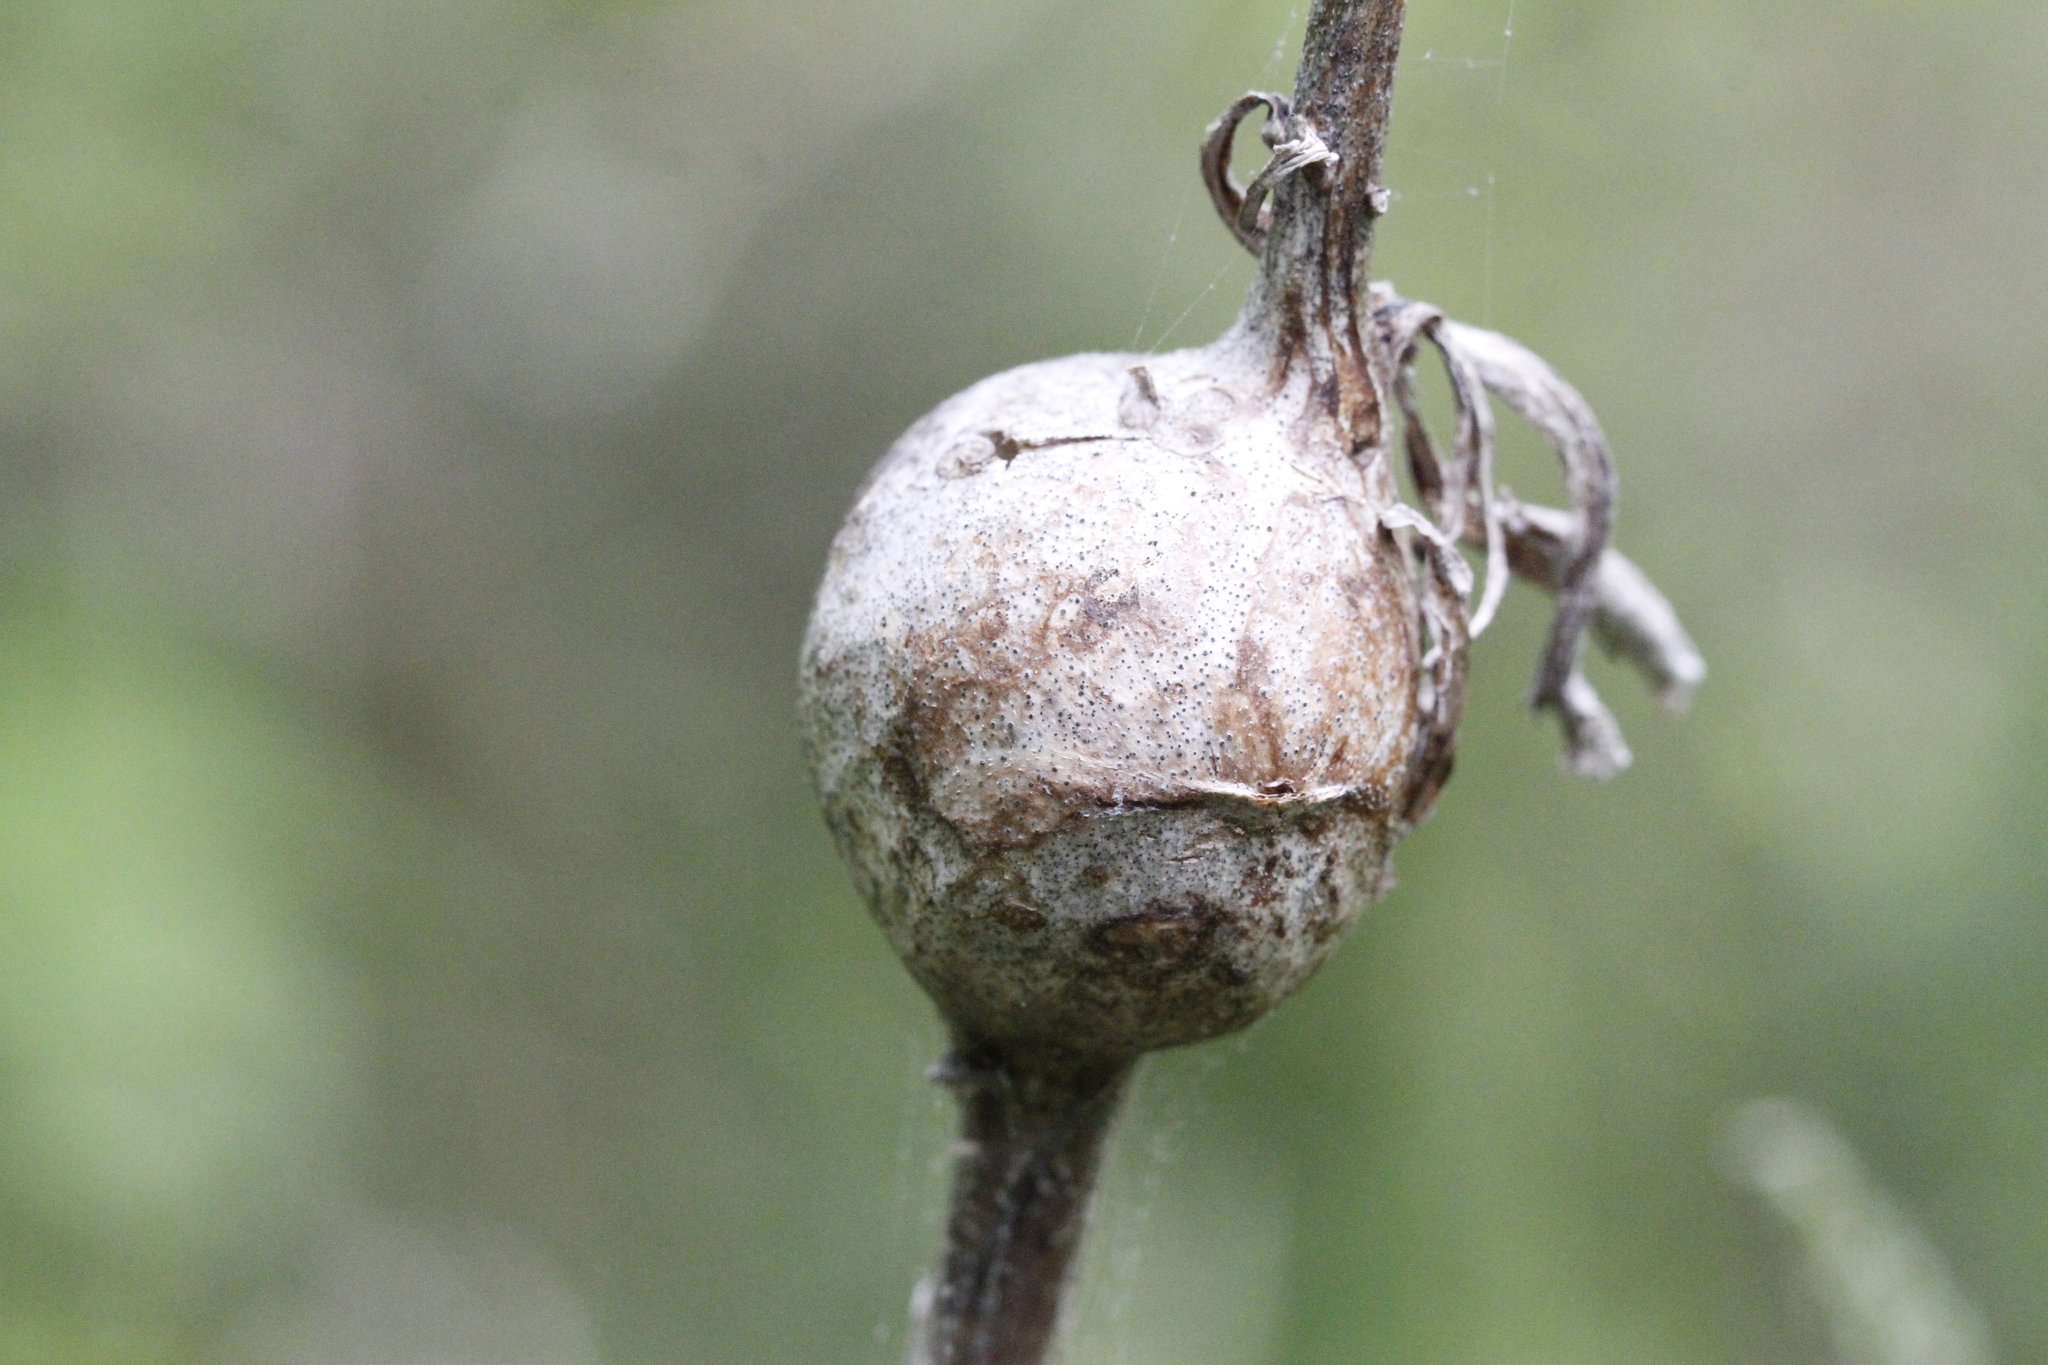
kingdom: Animalia
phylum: Arthropoda
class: Insecta
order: Diptera
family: Tephritidae
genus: Eurosta
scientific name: Eurosta solidaginis
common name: Goldenrod gall fly
